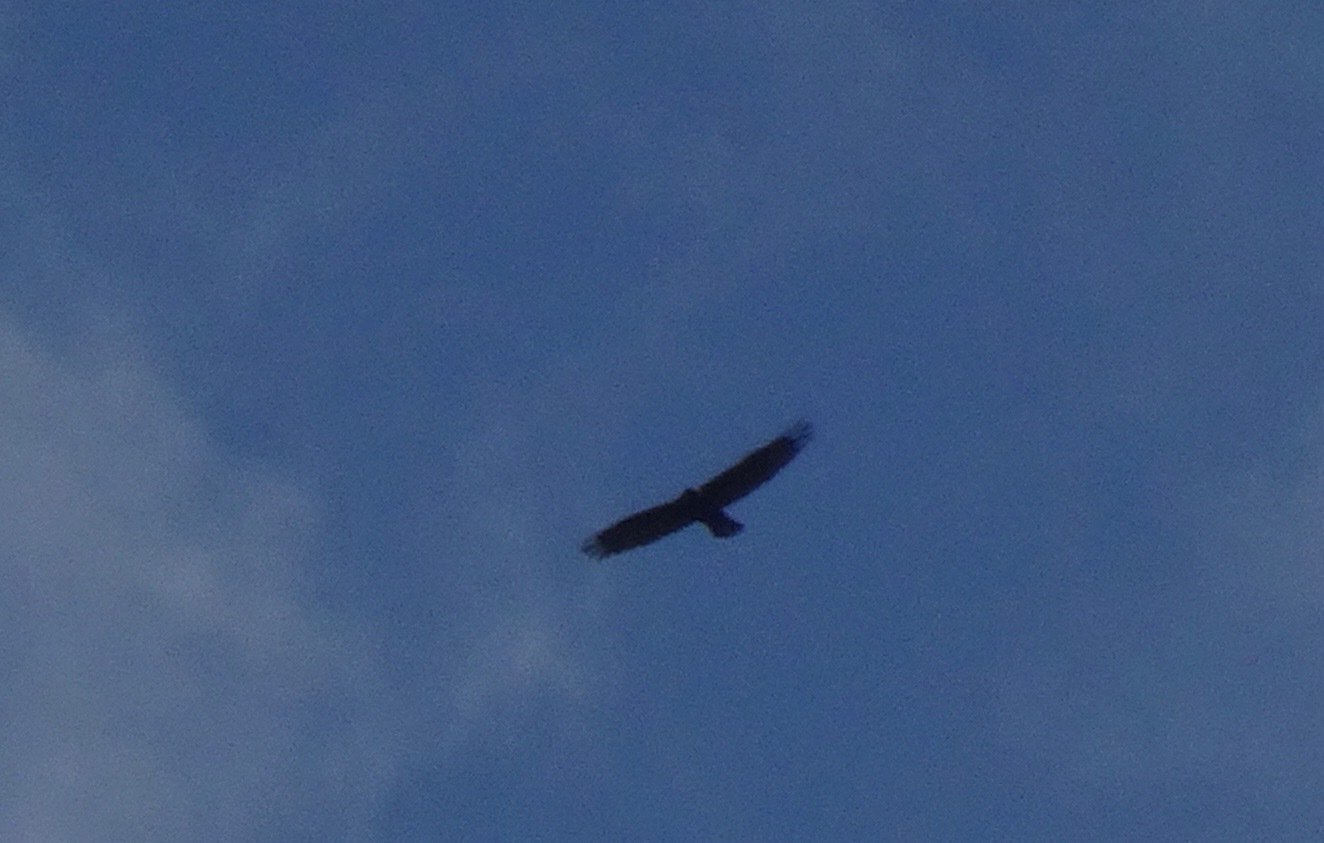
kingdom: Animalia
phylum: Chordata
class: Aves
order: Accipitriformes
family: Accipitridae
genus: Aquila
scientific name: Aquila chrysaetos
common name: Golden eagle
